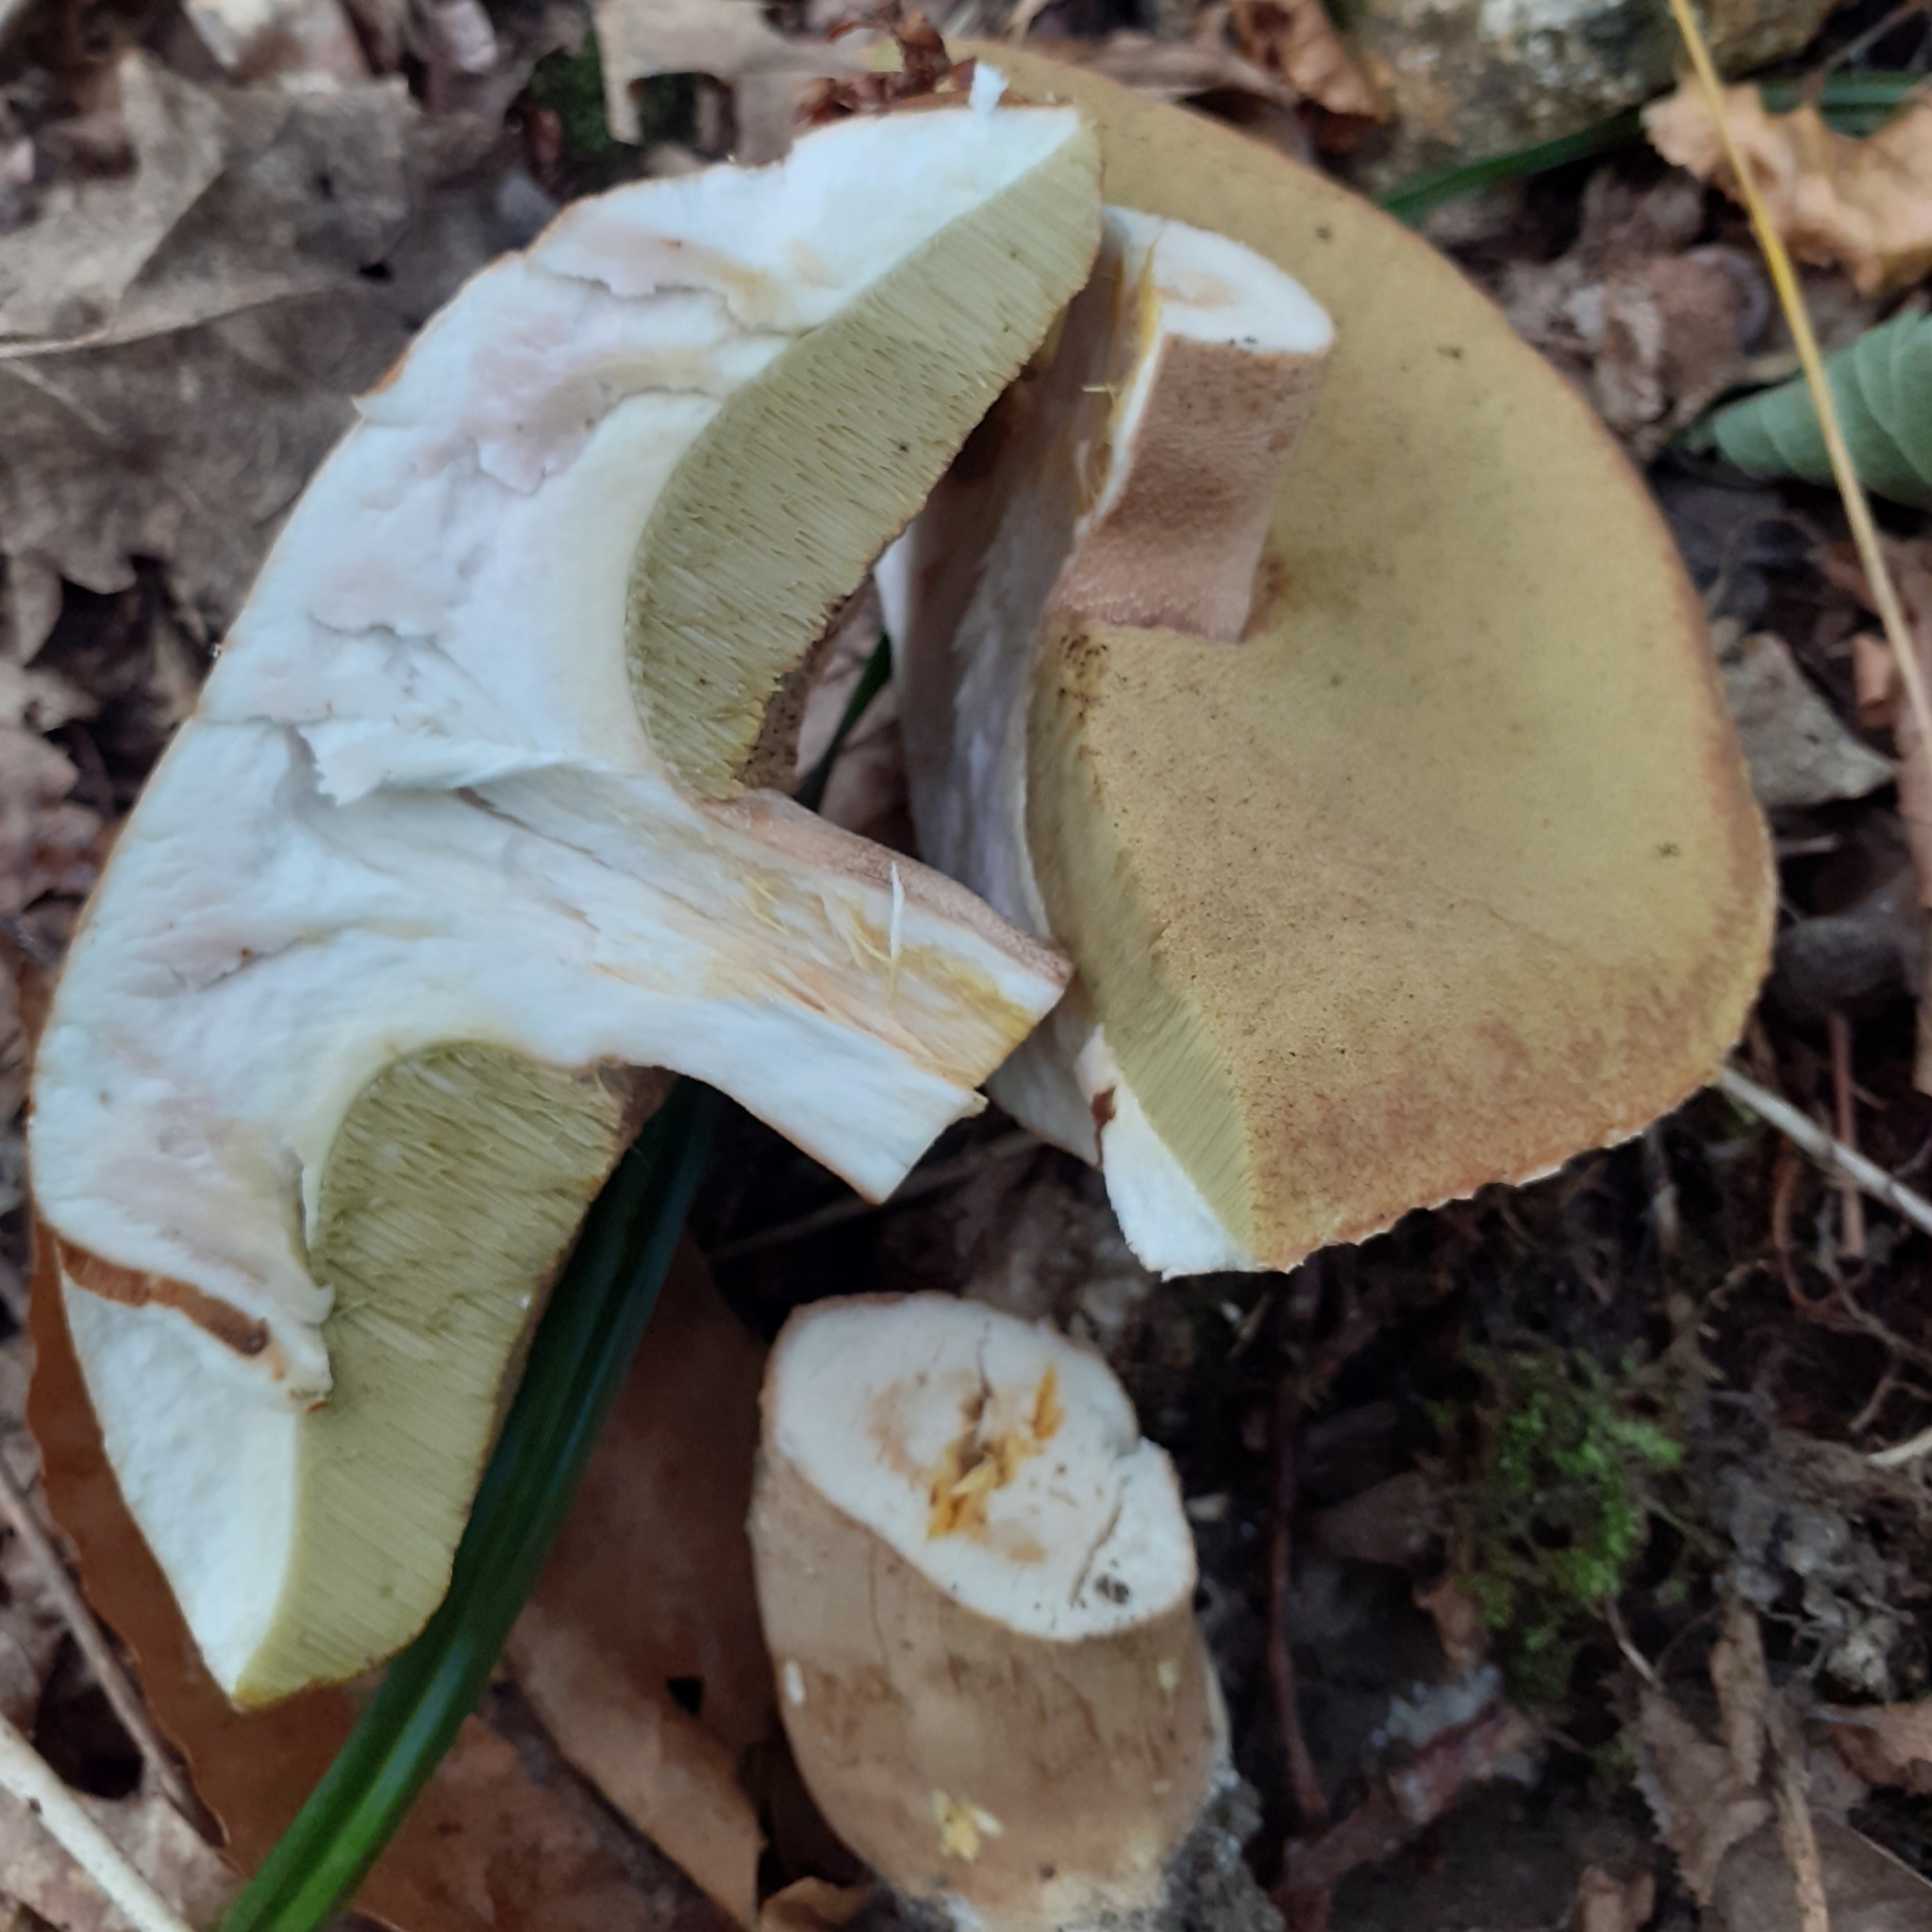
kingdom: Fungi
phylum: Basidiomycota
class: Agaricomycetes
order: Boletales
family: Boletaceae
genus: Boletus
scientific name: Boletus reticulatus
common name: Summer bolete
